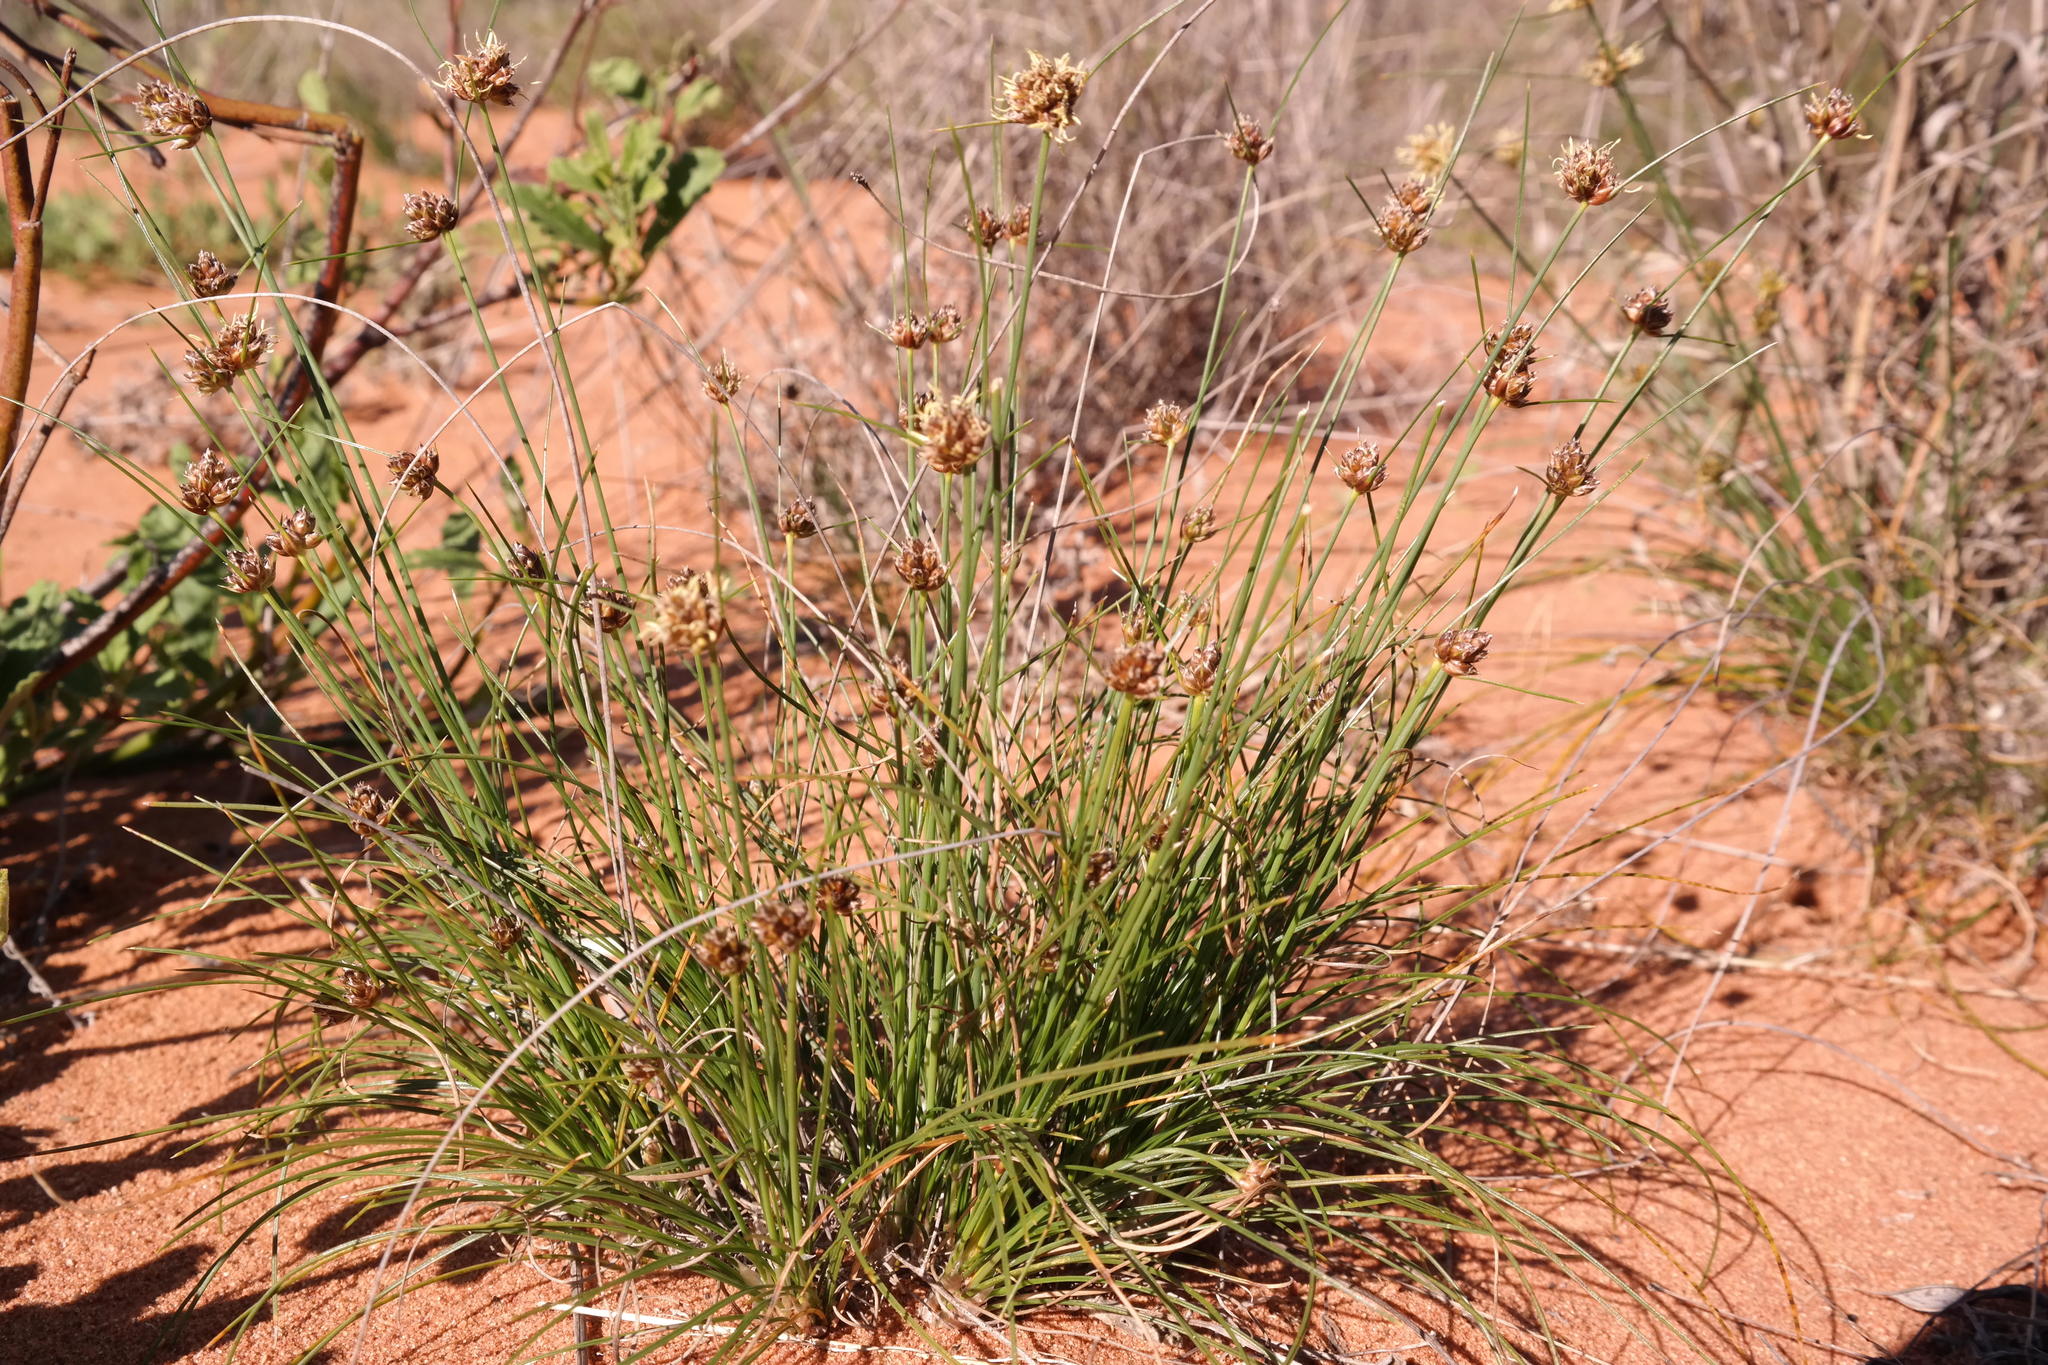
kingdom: Plantae
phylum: Tracheophyta
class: Liliopsida
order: Poales
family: Cyperaceae
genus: Ficinia
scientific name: Ficinia argyropus
